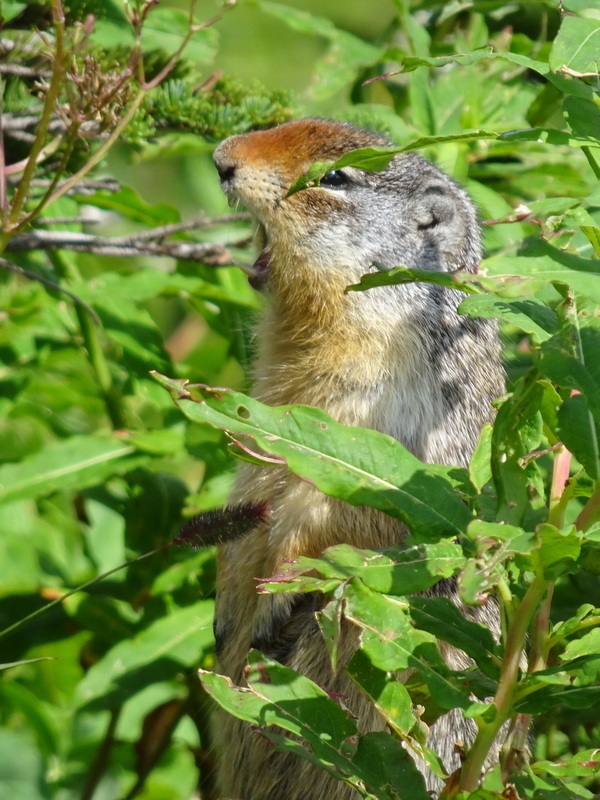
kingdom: Animalia
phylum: Chordata
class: Mammalia
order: Rodentia
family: Sciuridae
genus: Urocitellus
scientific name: Urocitellus columbianus
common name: Columbian ground squirrel
